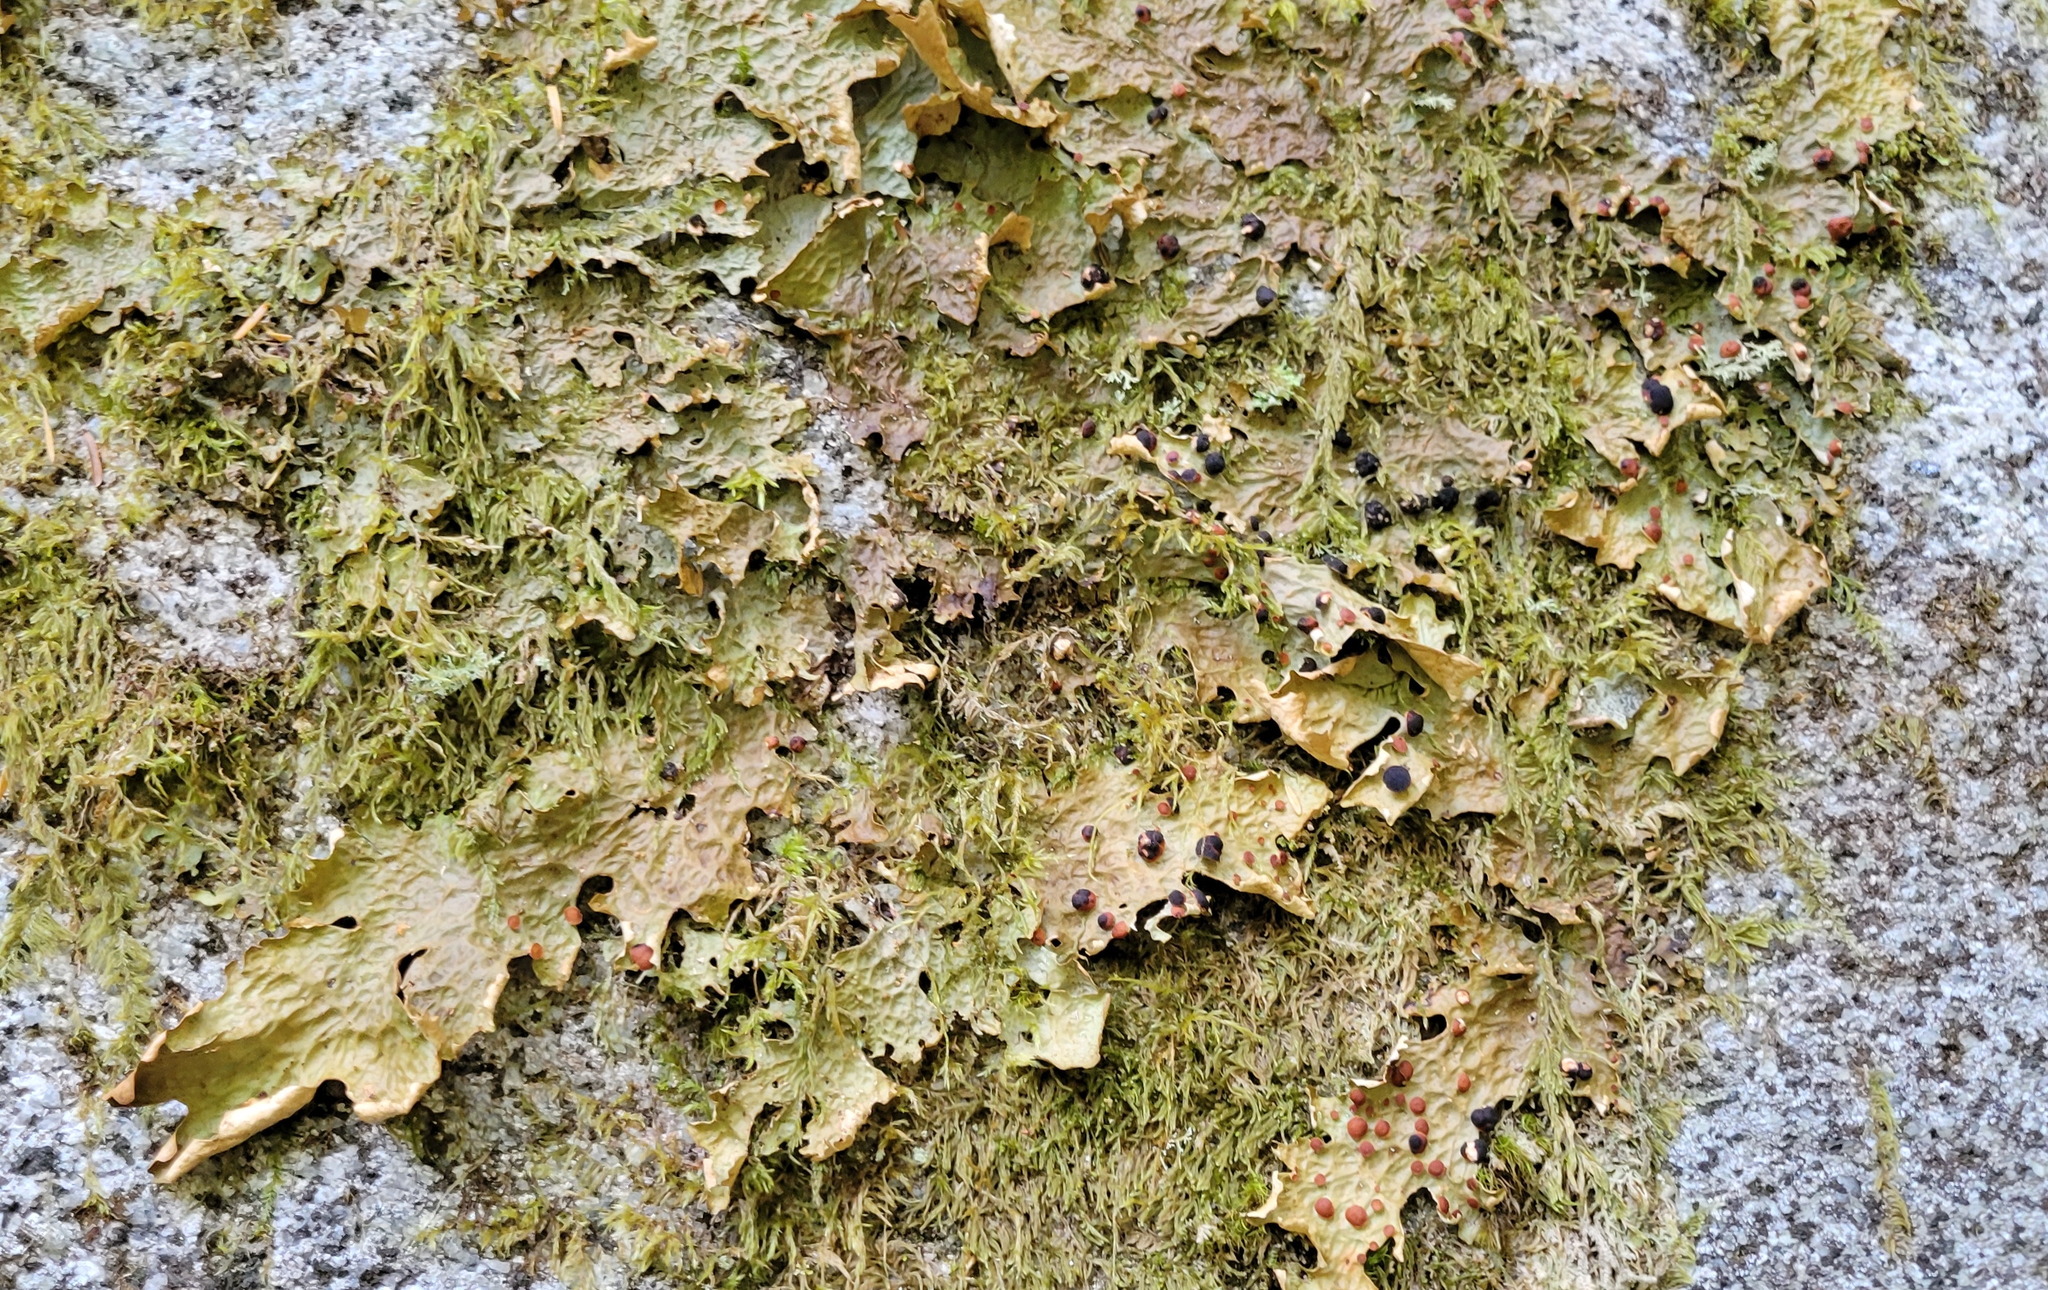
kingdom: Fungi
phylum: Ascomycota
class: Lecanoromycetes
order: Peltigerales
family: Lobariaceae
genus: Lobaria
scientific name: Lobaria linita
